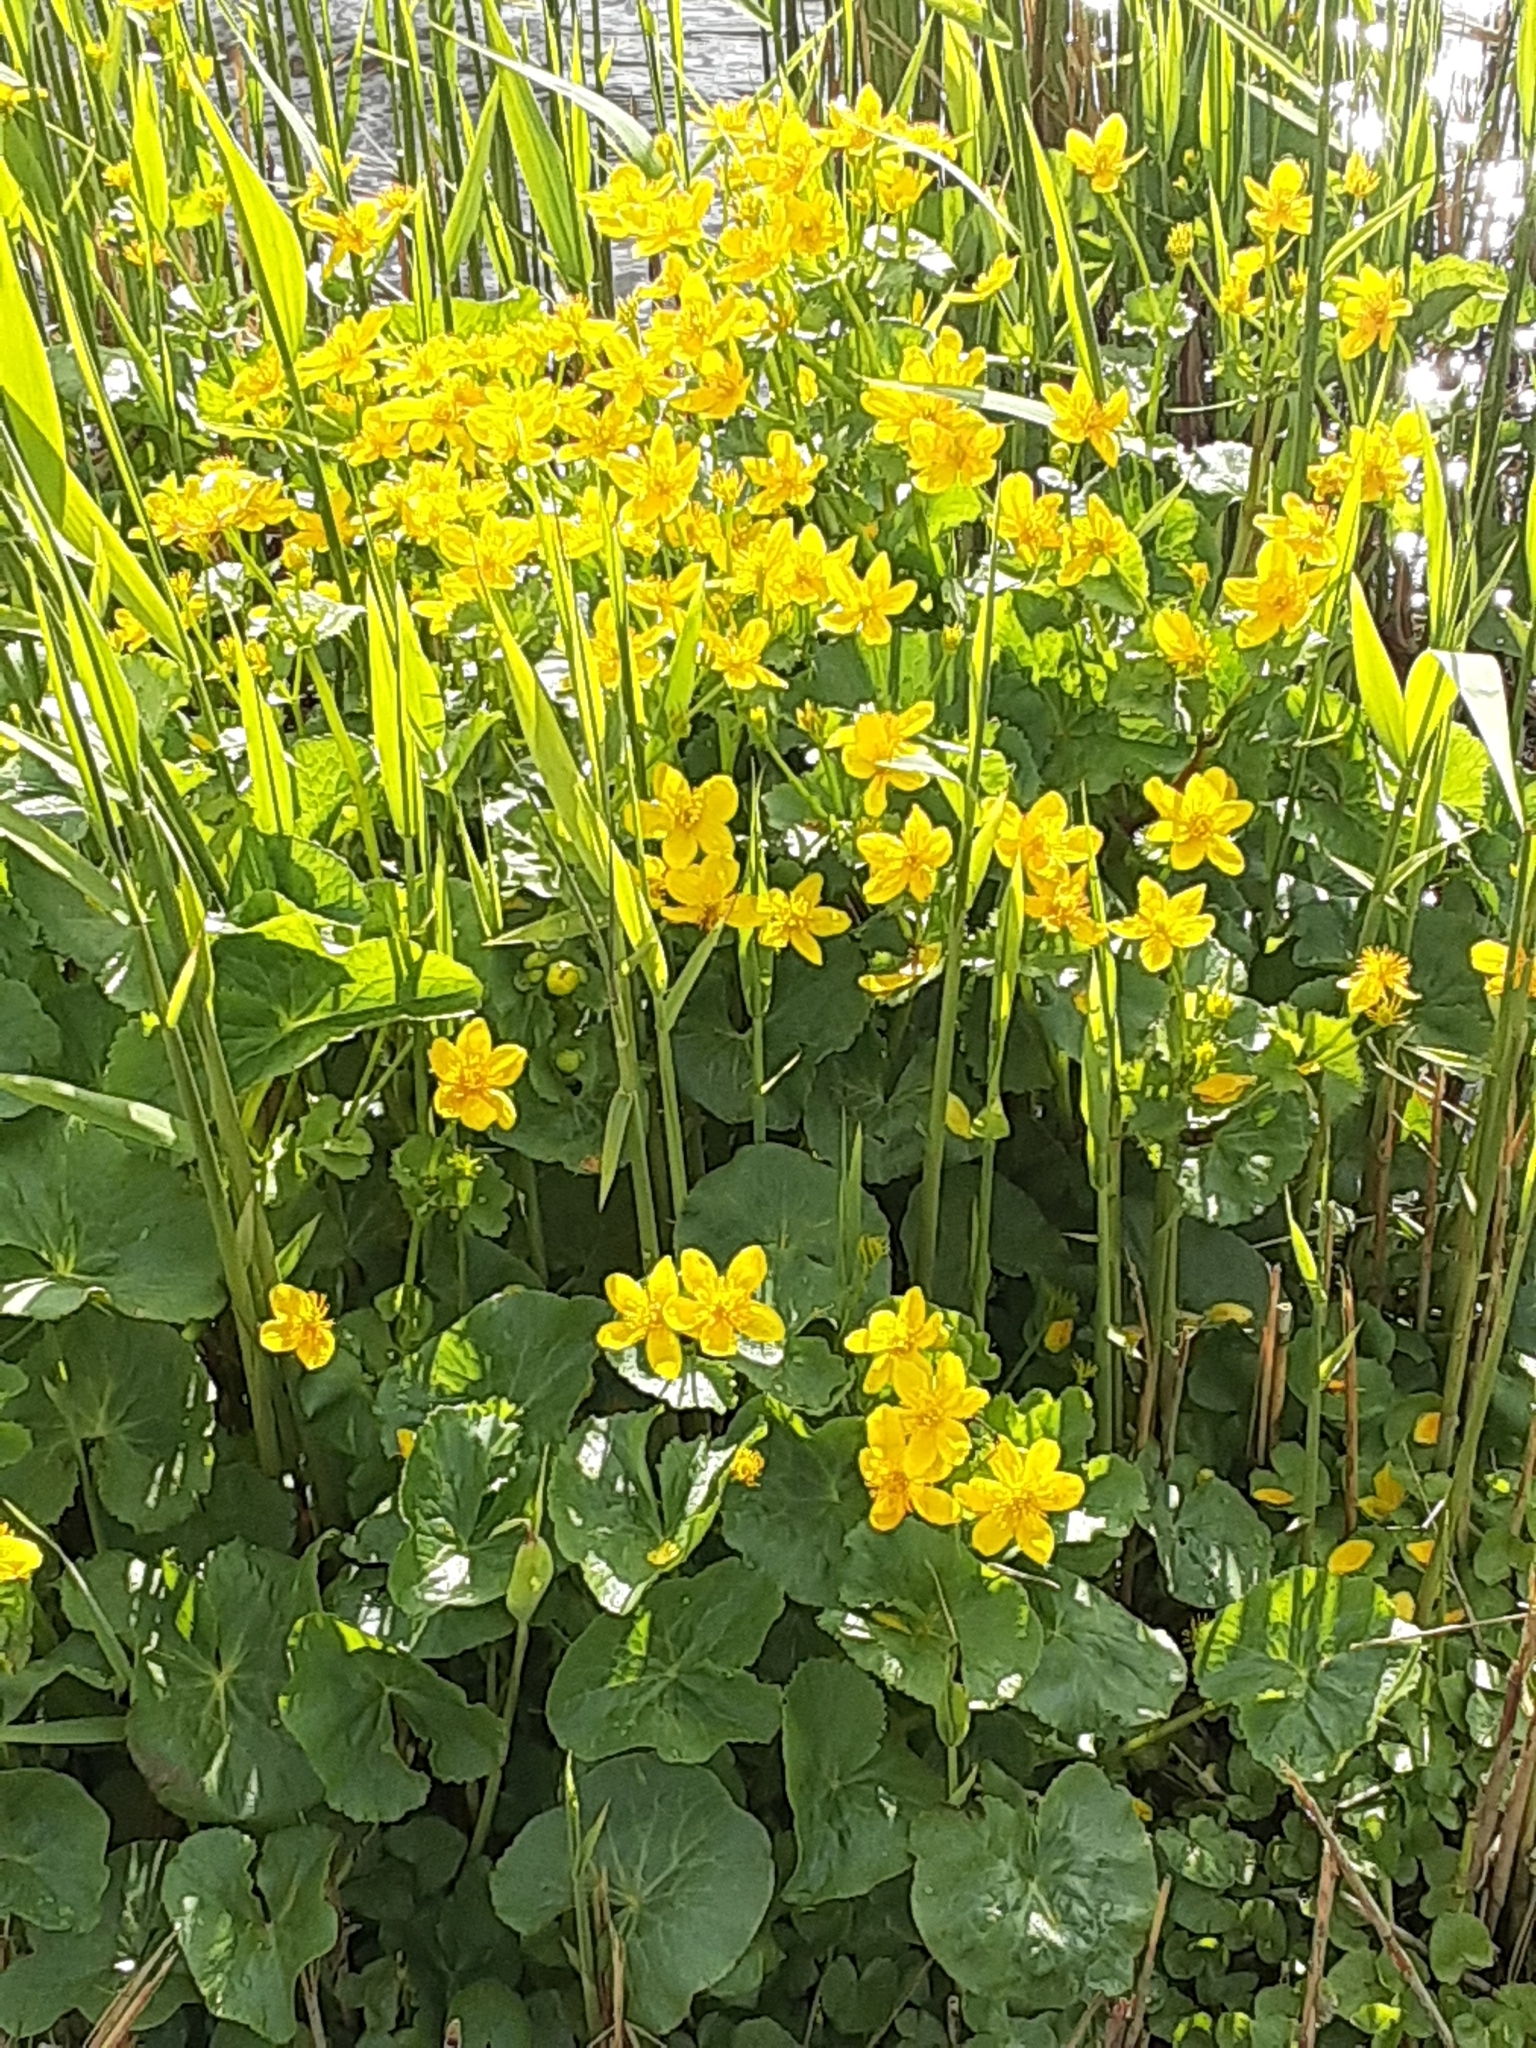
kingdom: Plantae
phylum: Tracheophyta
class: Magnoliopsida
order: Ranunculales
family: Ranunculaceae
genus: Caltha
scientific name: Caltha palustris
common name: Marsh marigold
